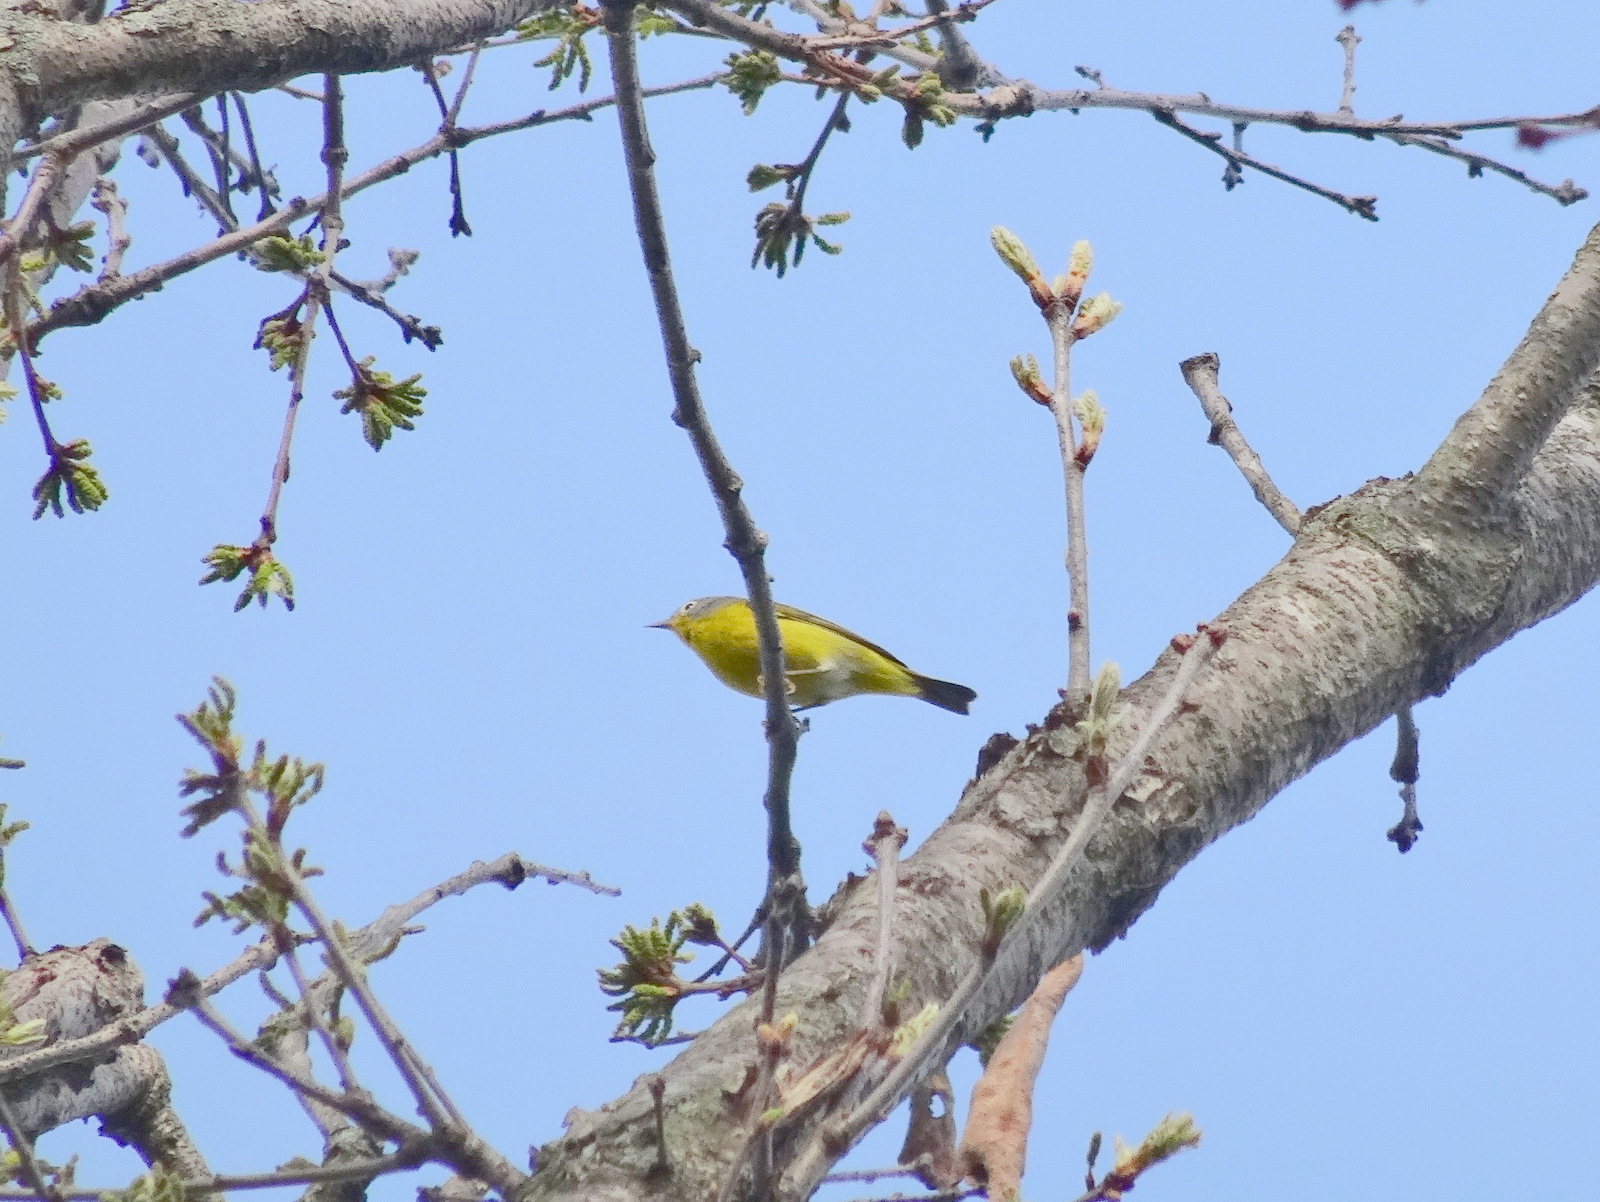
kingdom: Animalia
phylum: Chordata
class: Aves
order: Passeriformes
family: Parulidae
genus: Leiothlypis
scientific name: Leiothlypis ruficapilla
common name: Nashville warbler
